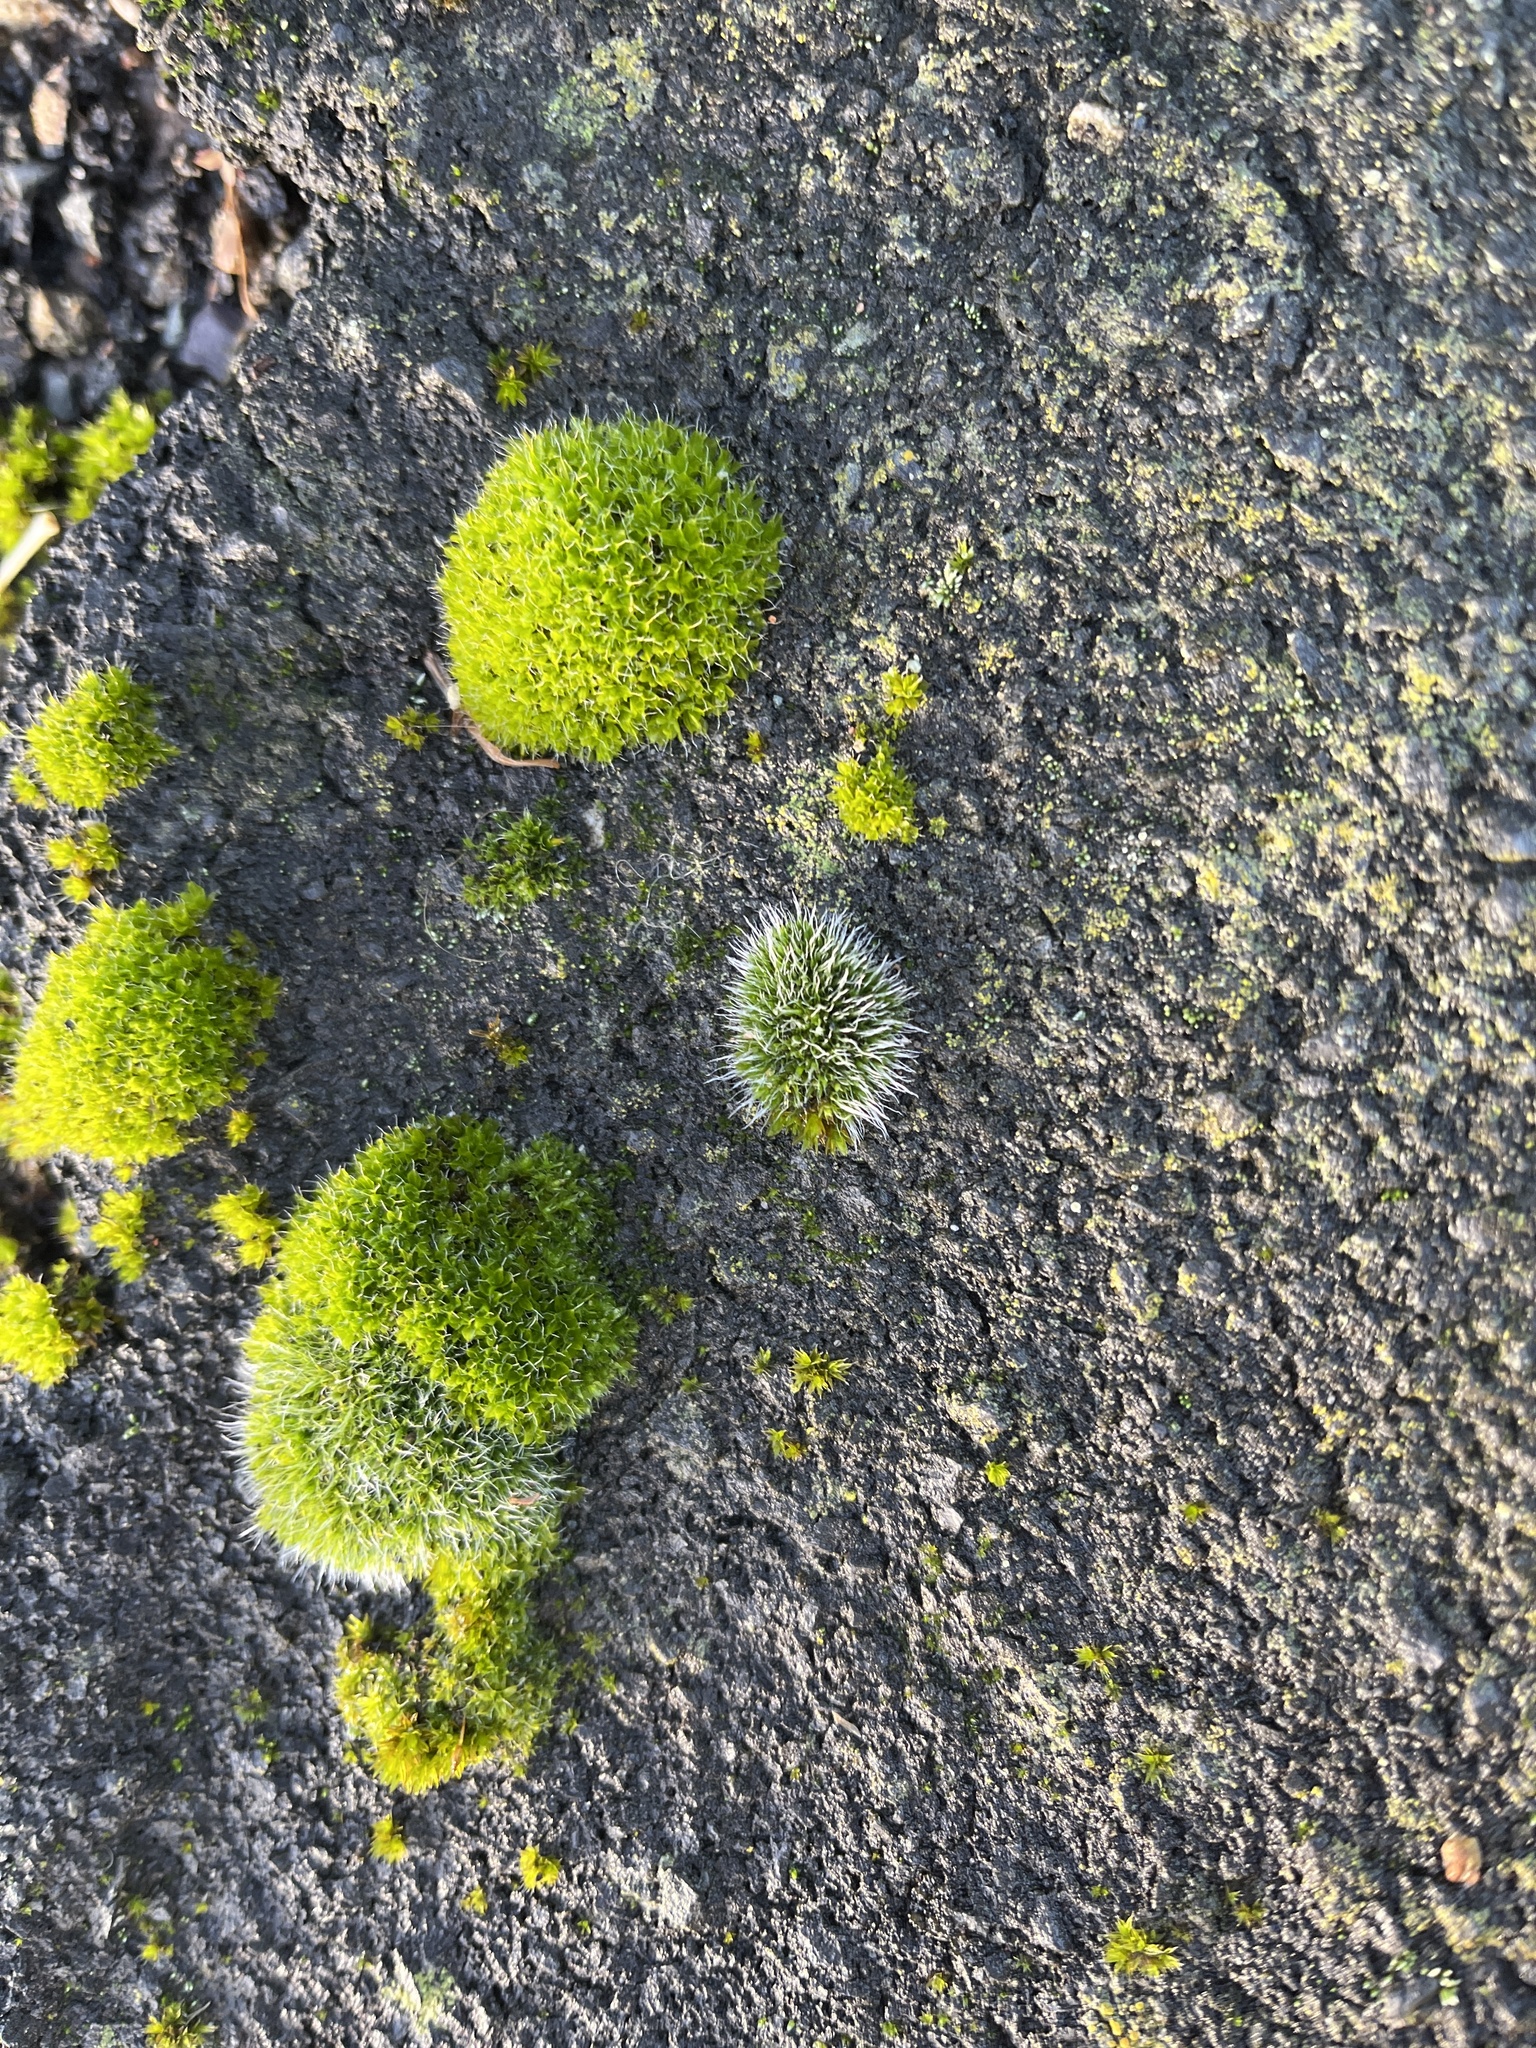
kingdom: Plantae
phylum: Bryophyta
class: Bryopsida
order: Grimmiales
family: Grimmiaceae
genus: Grimmia
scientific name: Grimmia pulvinata
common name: Grey-cushioned grimmia
